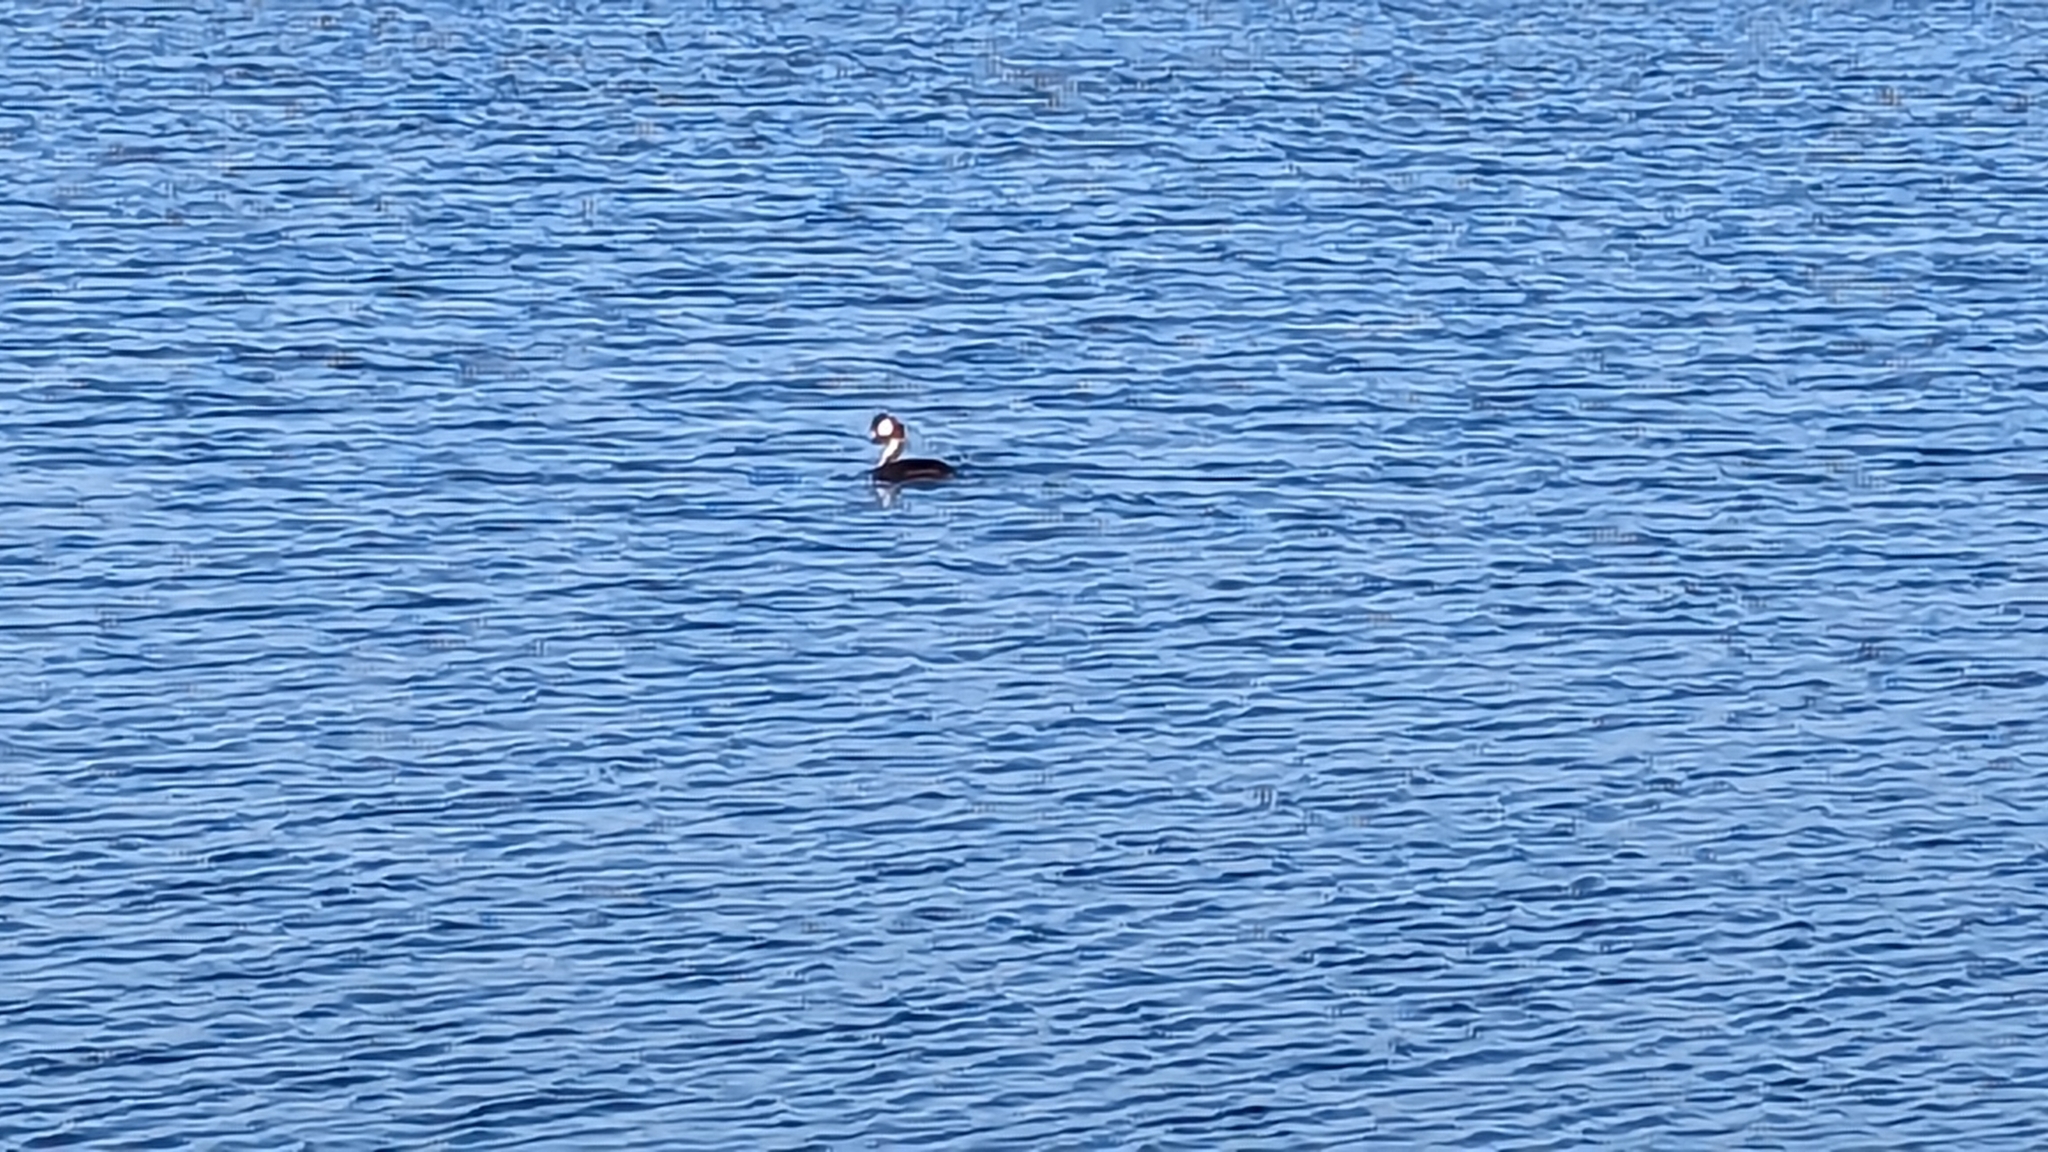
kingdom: Animalia
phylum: Chordata
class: Aves
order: Podicipediformes
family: Podicipedidae
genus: Podiceps
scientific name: Podiceps cristatus
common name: Great crested grebe
